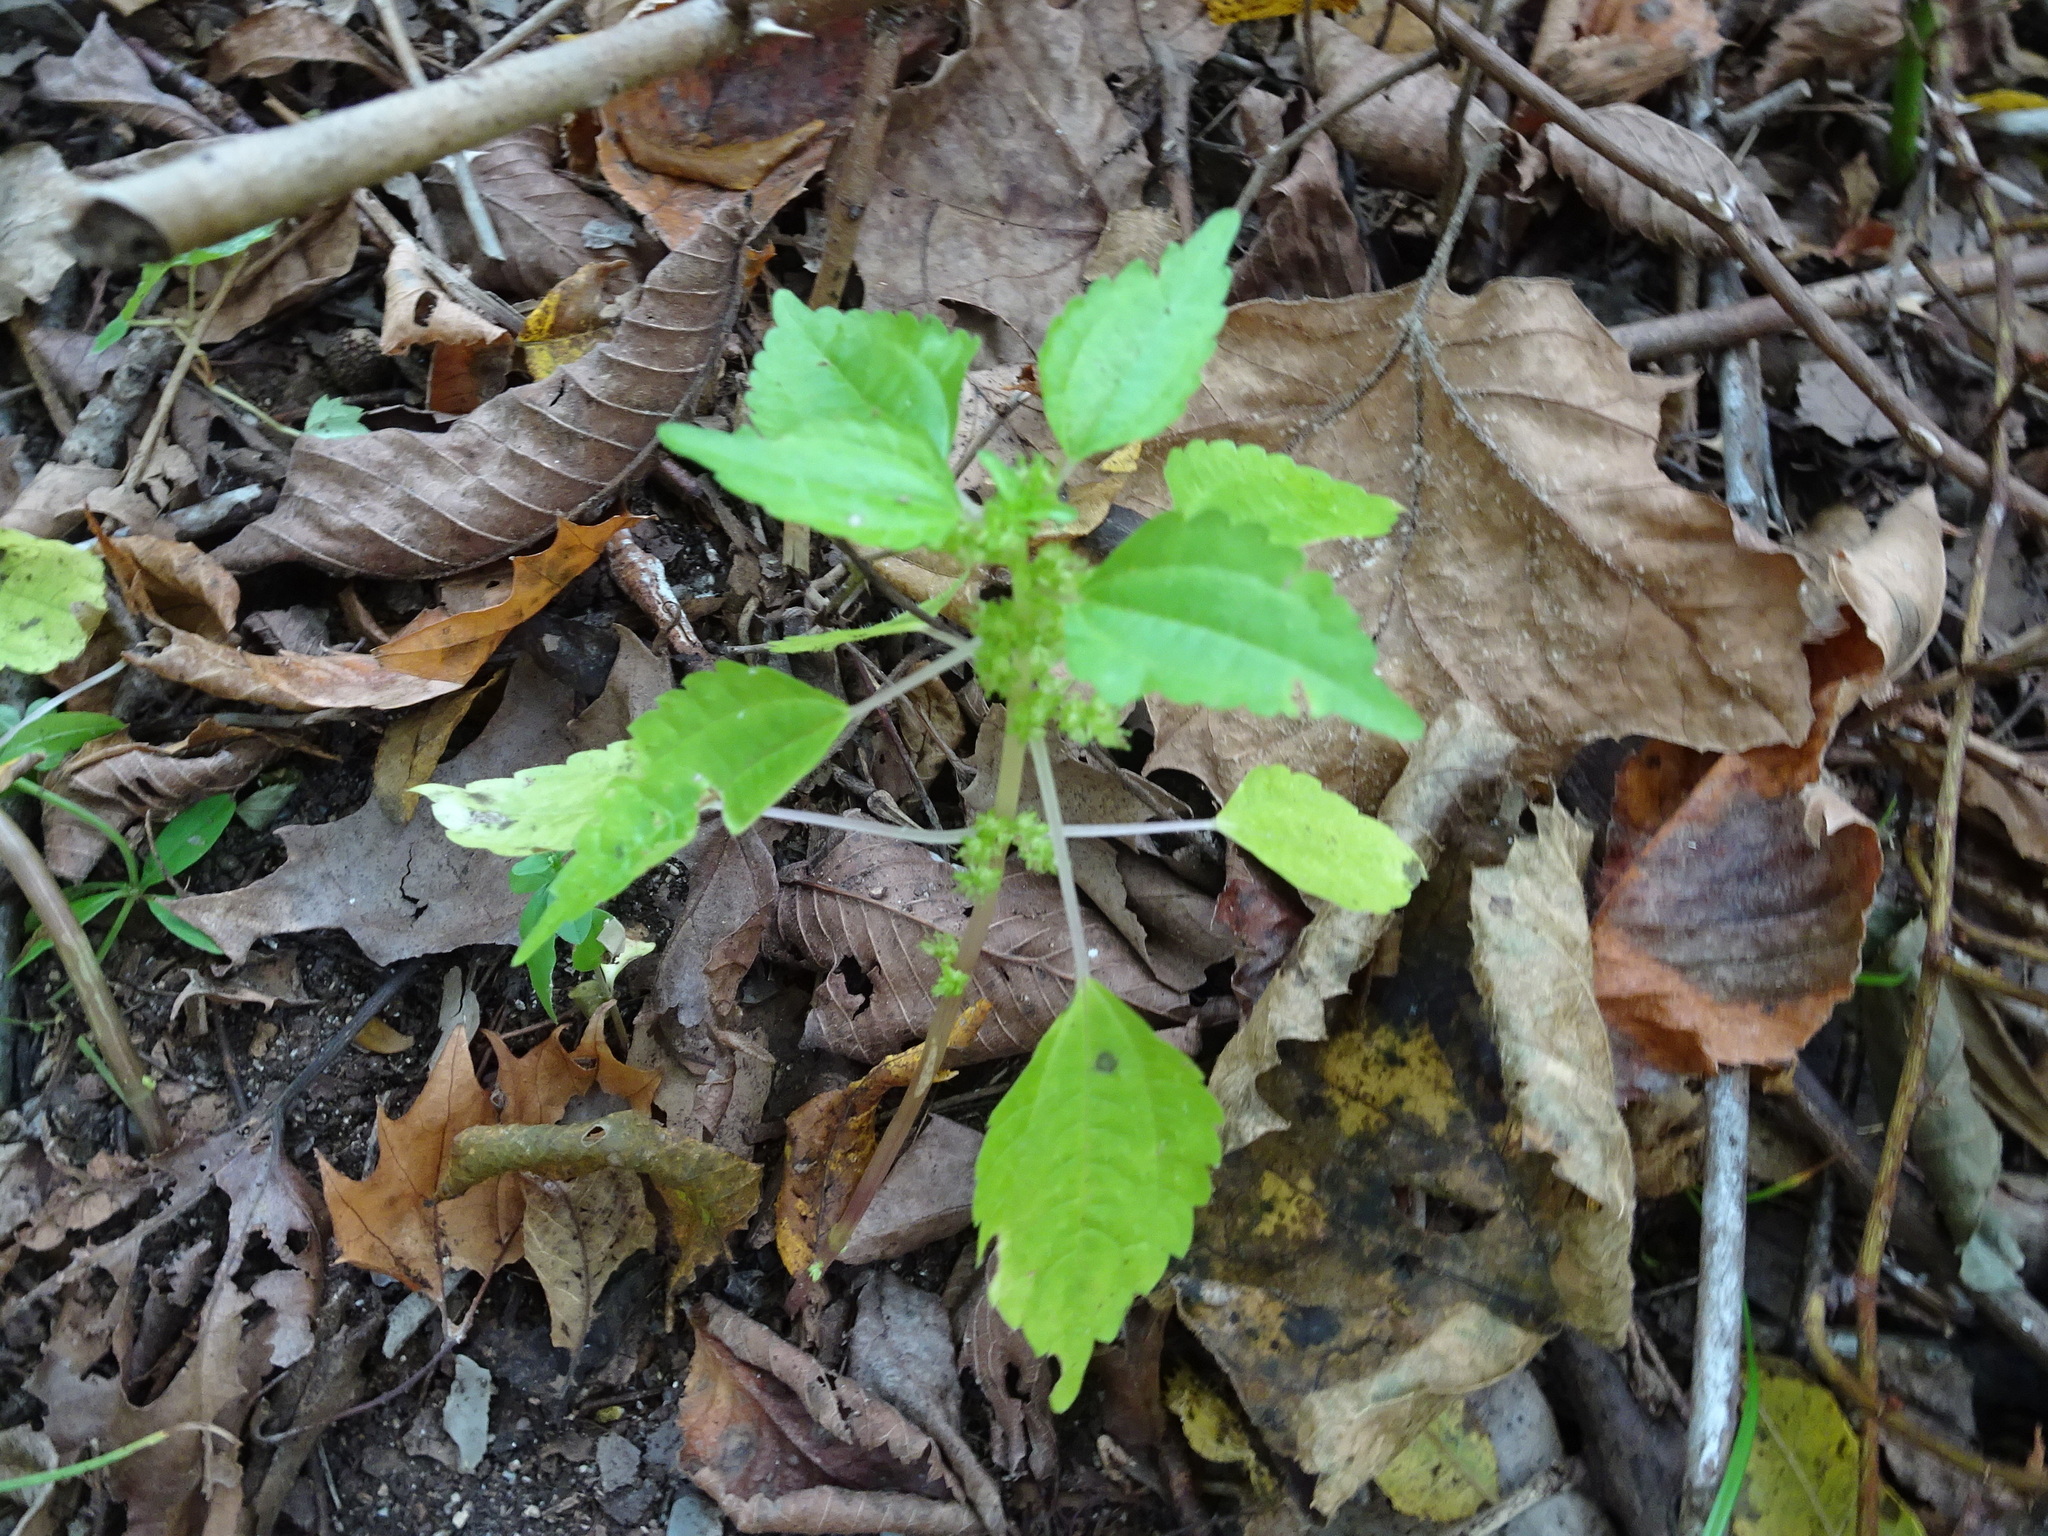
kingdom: Plantae
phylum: Tracheophyta
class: Magnoliopsida
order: Rosales
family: Urticaceae
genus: Pilea
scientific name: Pilea pumila
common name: Clearweed
